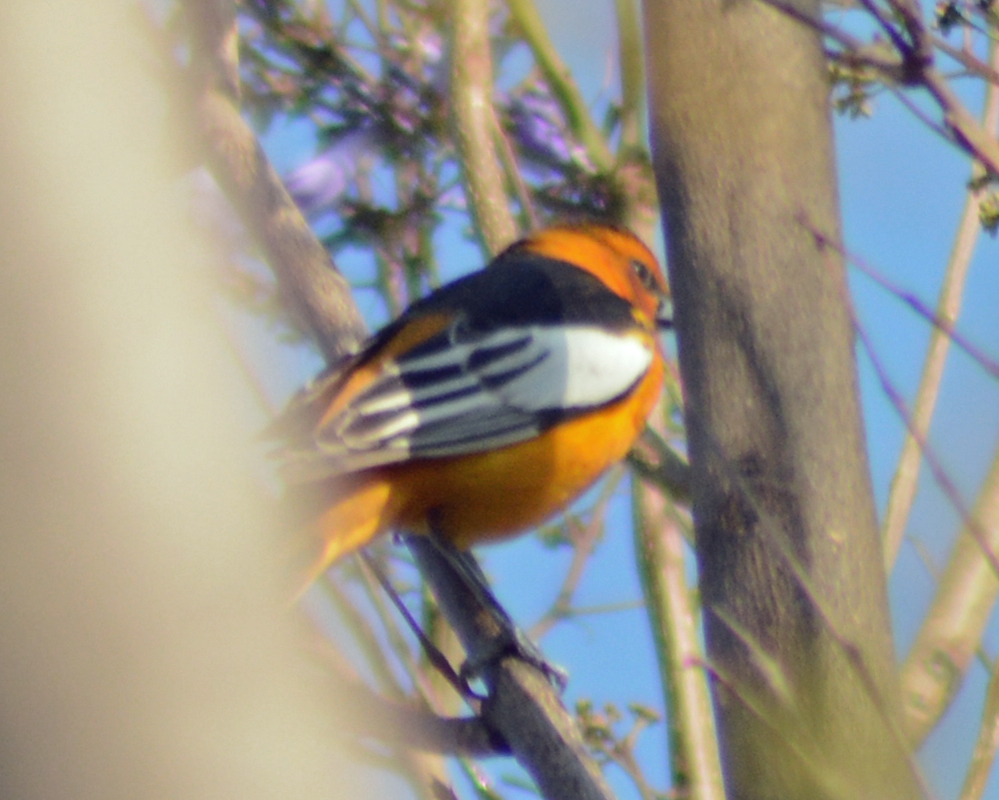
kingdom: Animalia
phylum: Chordata
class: Aves
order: Passeriformes
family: Icteridae
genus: Icterus
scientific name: Icterus bullockii
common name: Bullock's oriole
